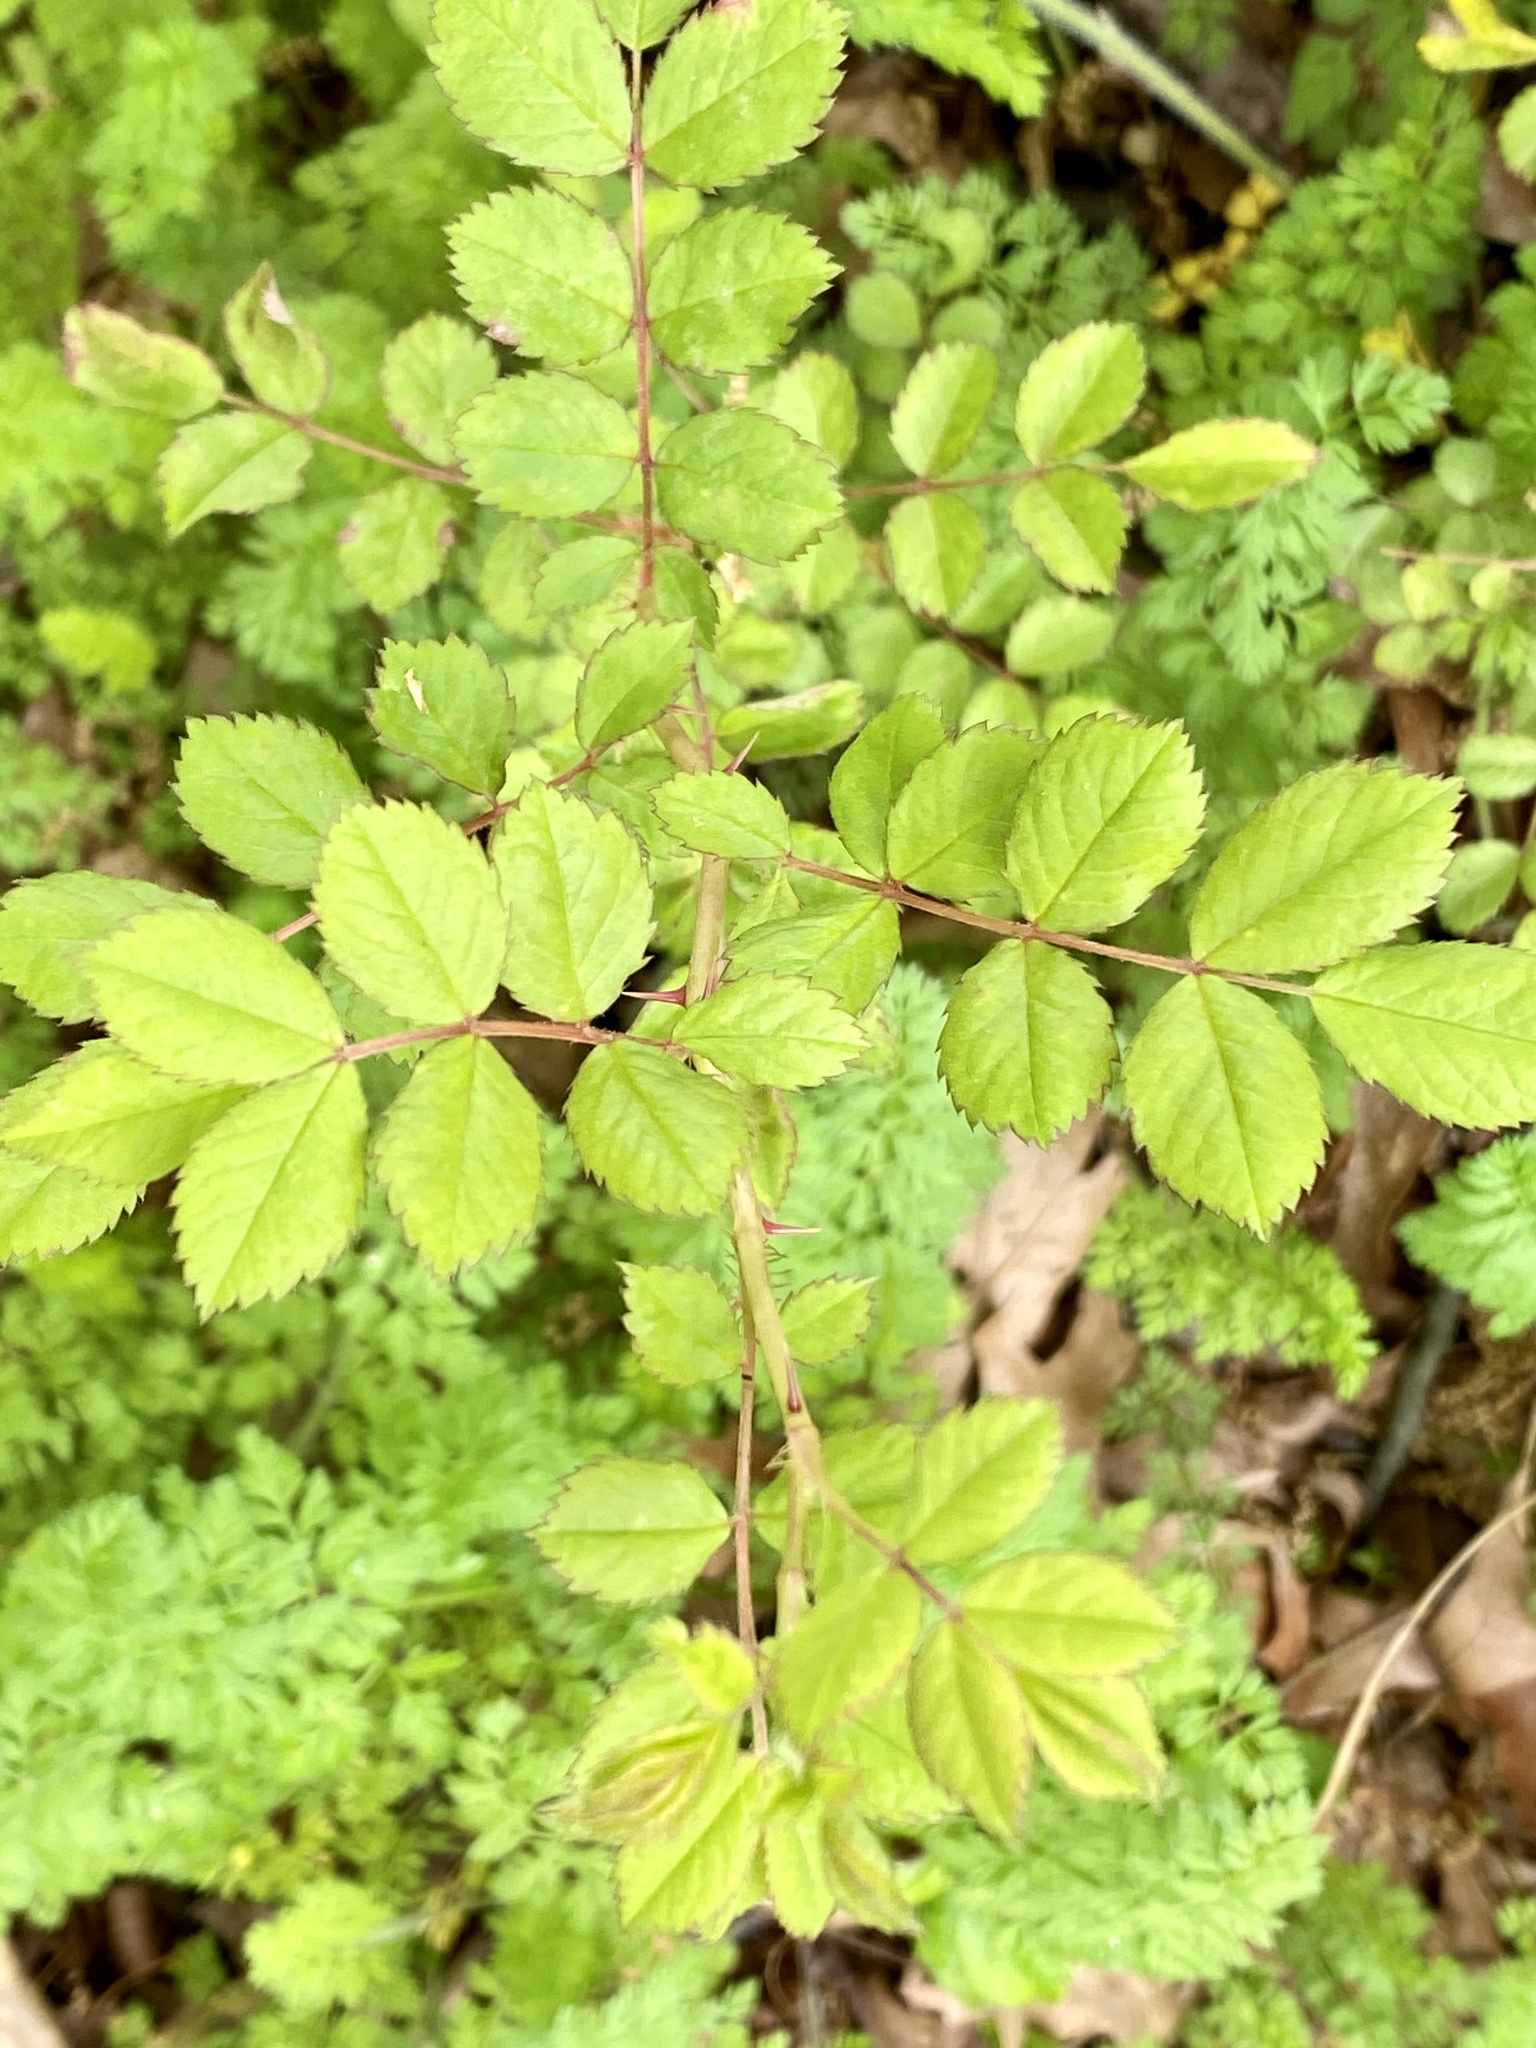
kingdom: Plantae
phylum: Tracheophyta
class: Magnoliopsida
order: Rosales
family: Rosaceae
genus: Rosa
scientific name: Rosa multiflora
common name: Multiflora rose
